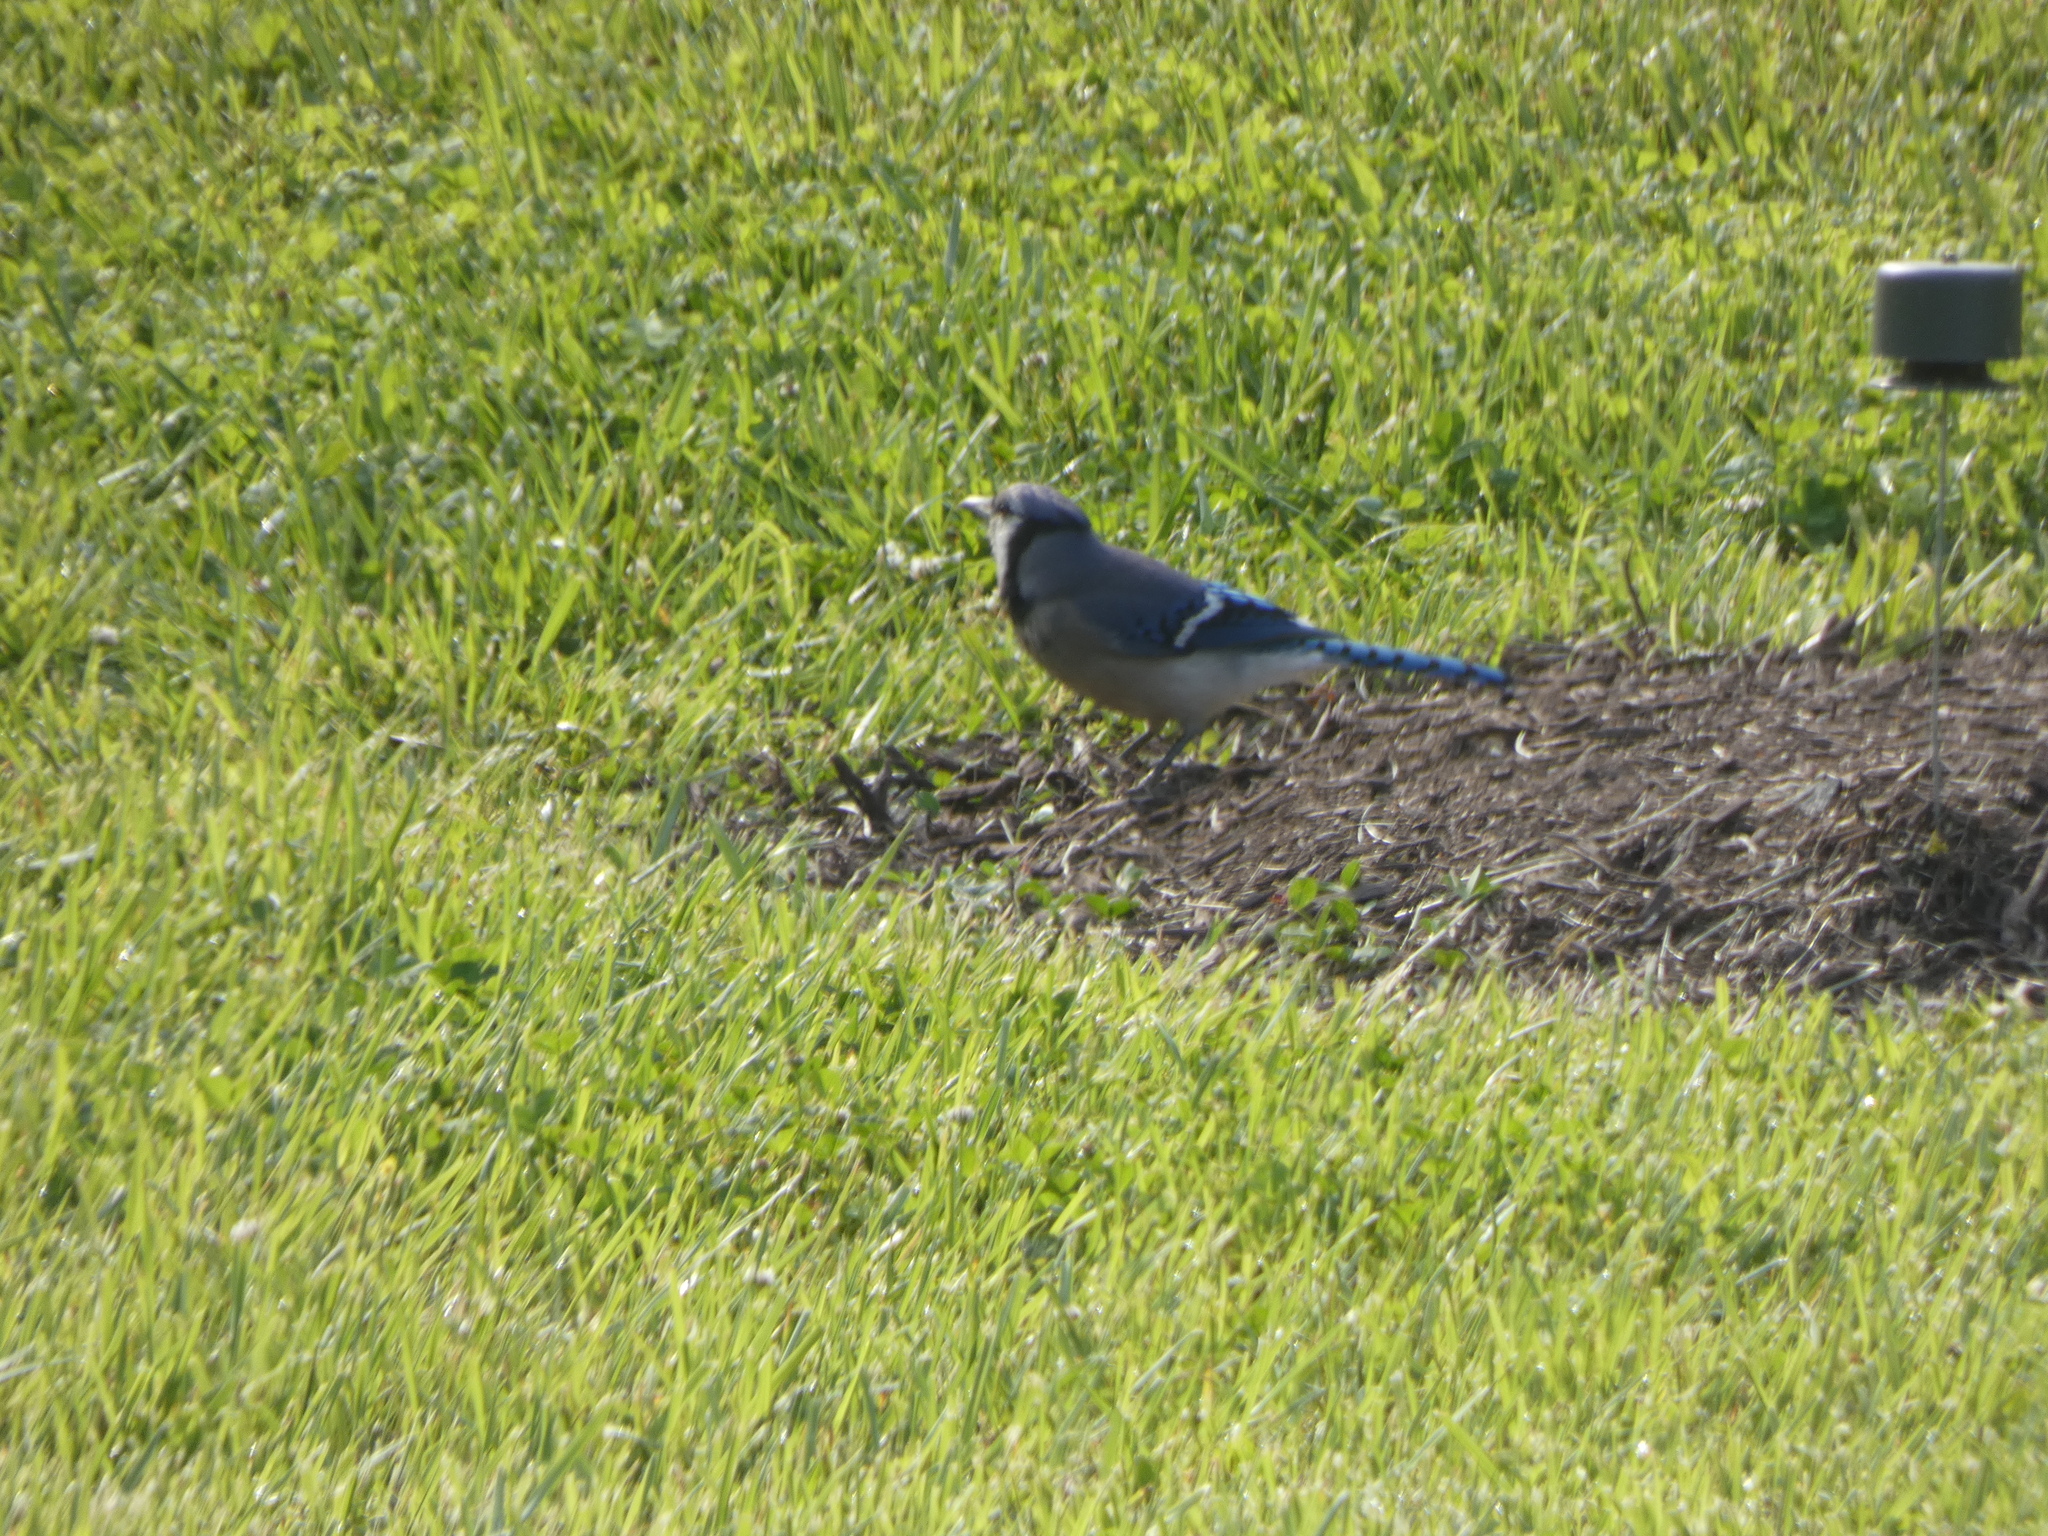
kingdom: Animalia
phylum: Chordata
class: Aves
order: Passeriformes
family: Corvidae
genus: Cyanocitta
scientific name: Cyanocitta cristata
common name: Blue jay
